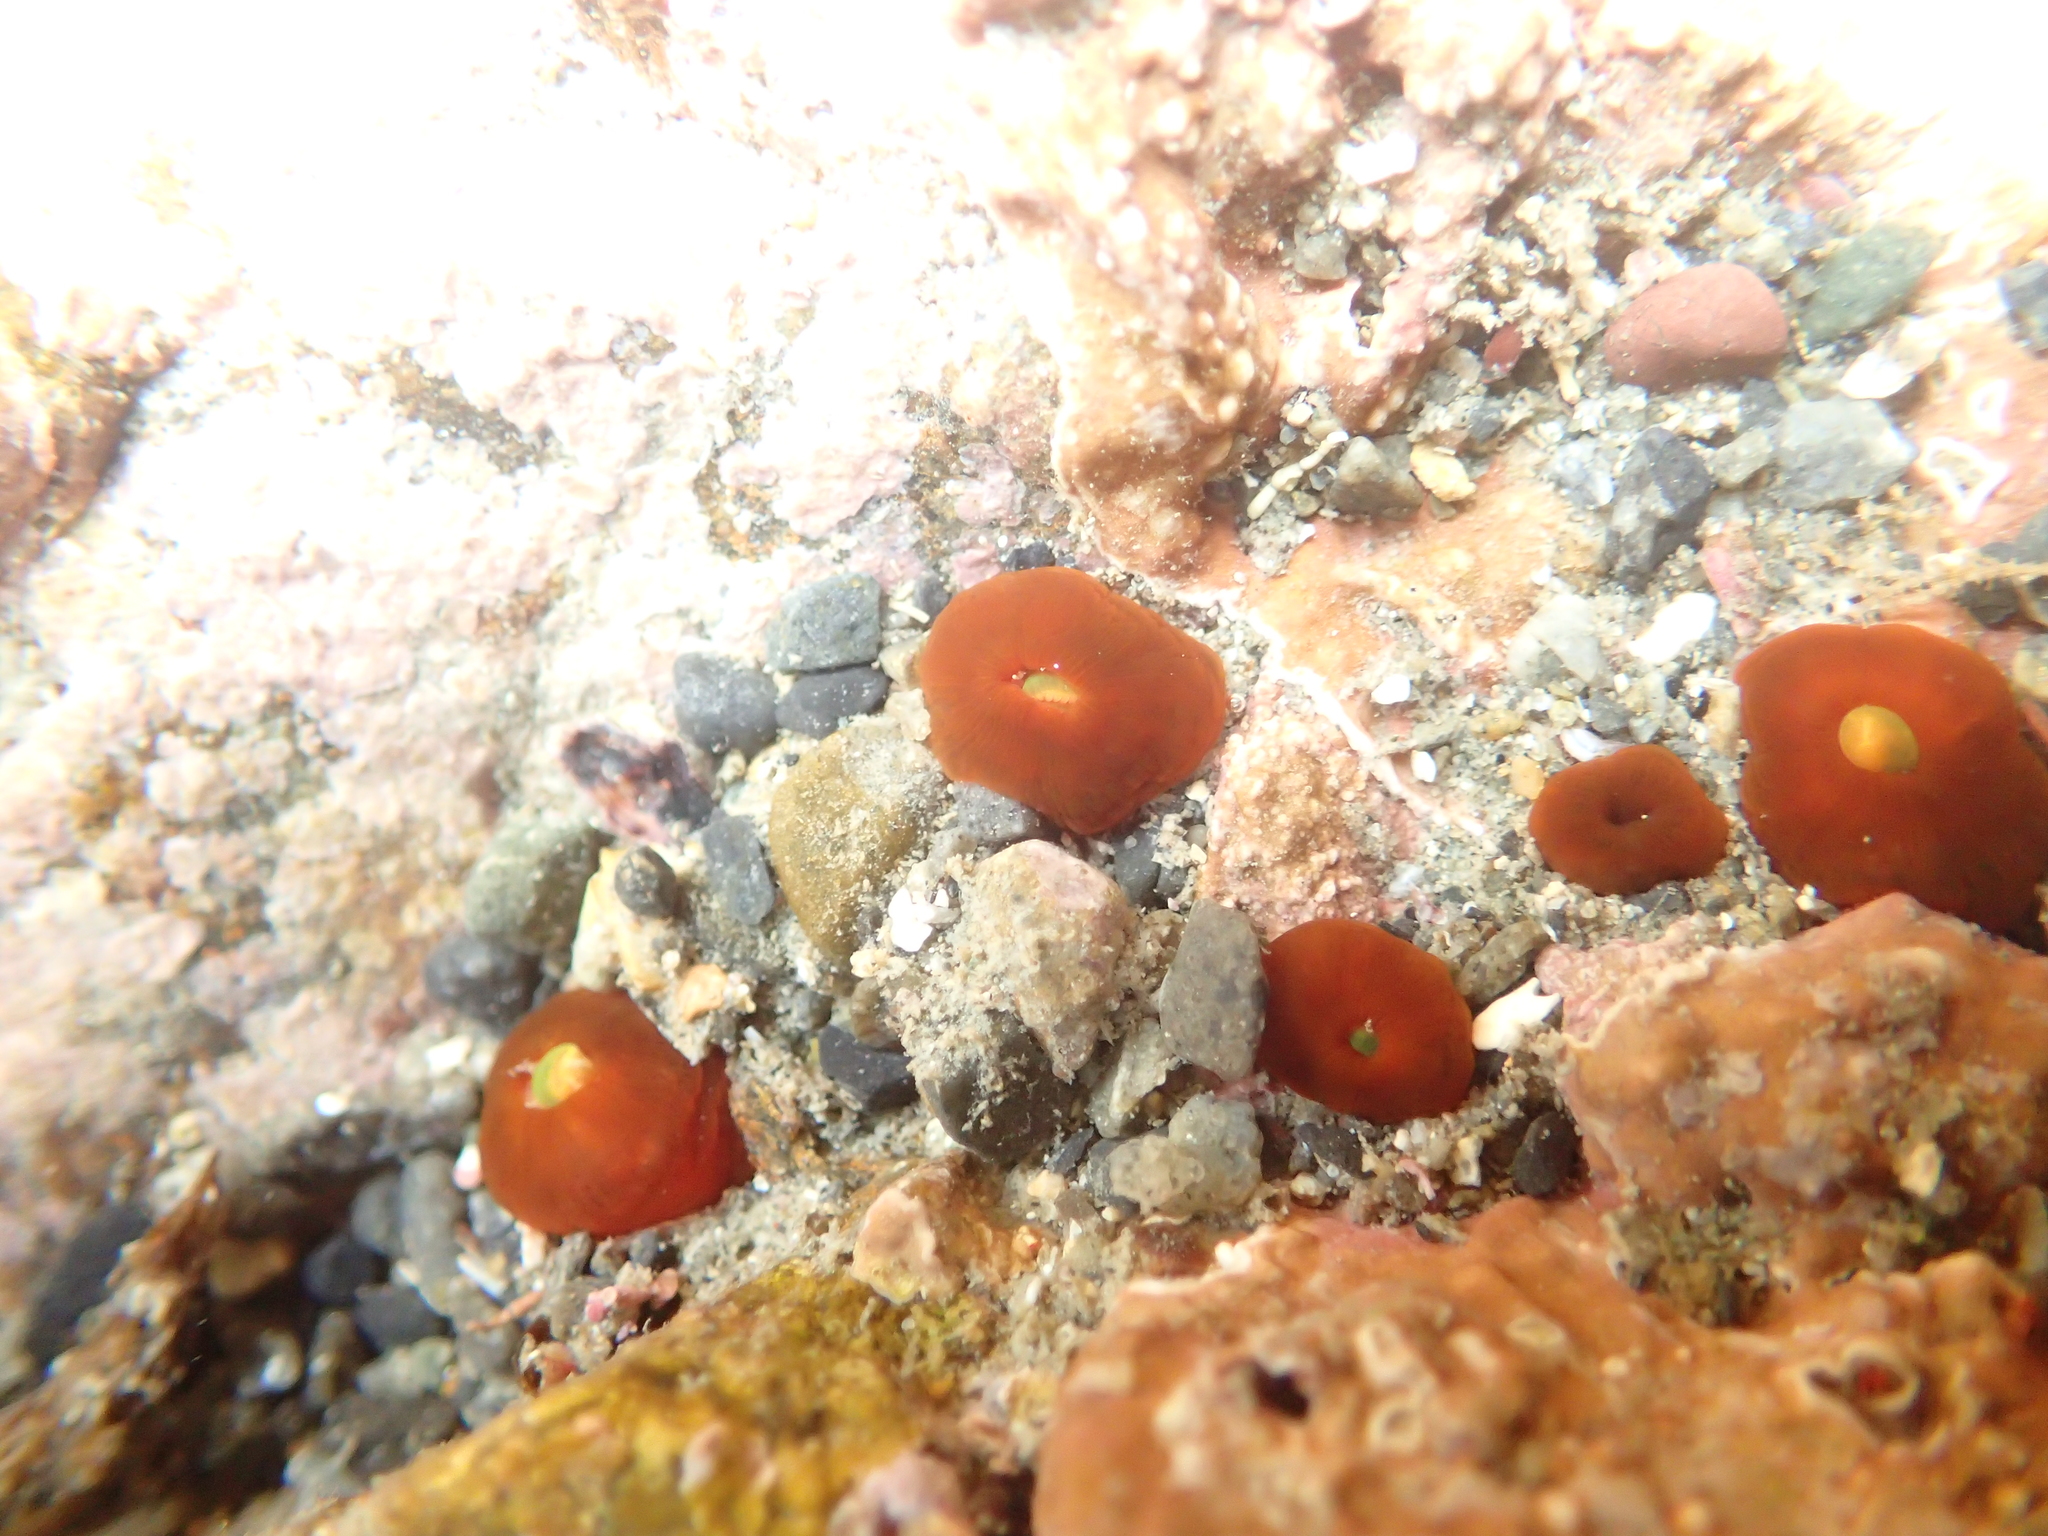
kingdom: Animalia
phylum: Cnidaria
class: Anthozoa
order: Corallimorpharia
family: Corallimorphidae
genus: Corynactis
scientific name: Corynactis australis
